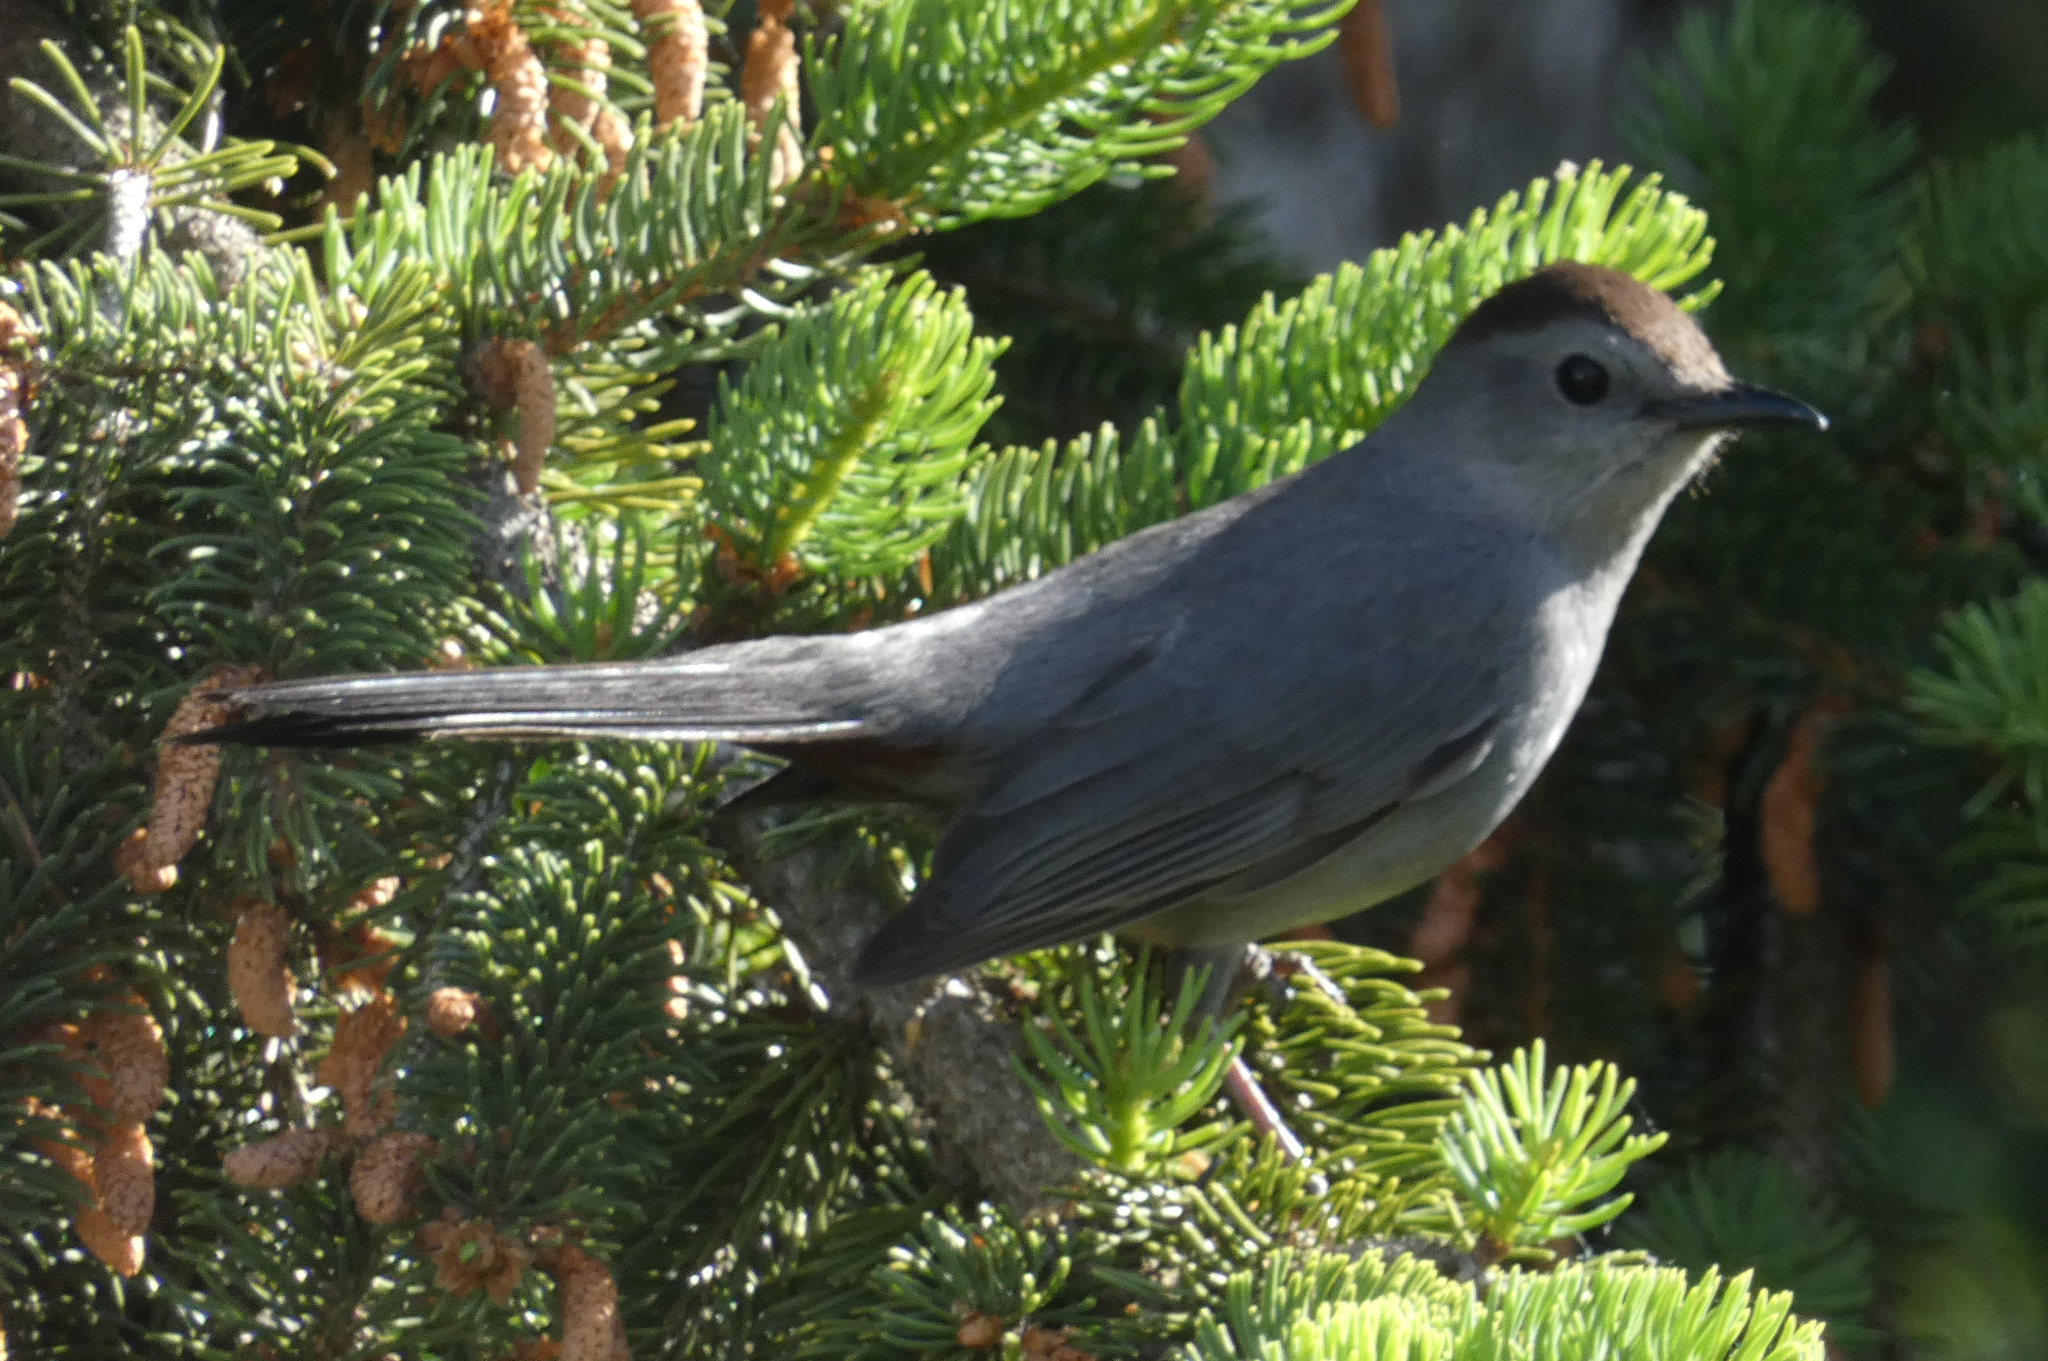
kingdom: Animalia
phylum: Chordata
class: Aves
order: Passeriformes
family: Mimidae
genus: Dumetella
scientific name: Dumetella carolinensis
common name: Gray catbird
